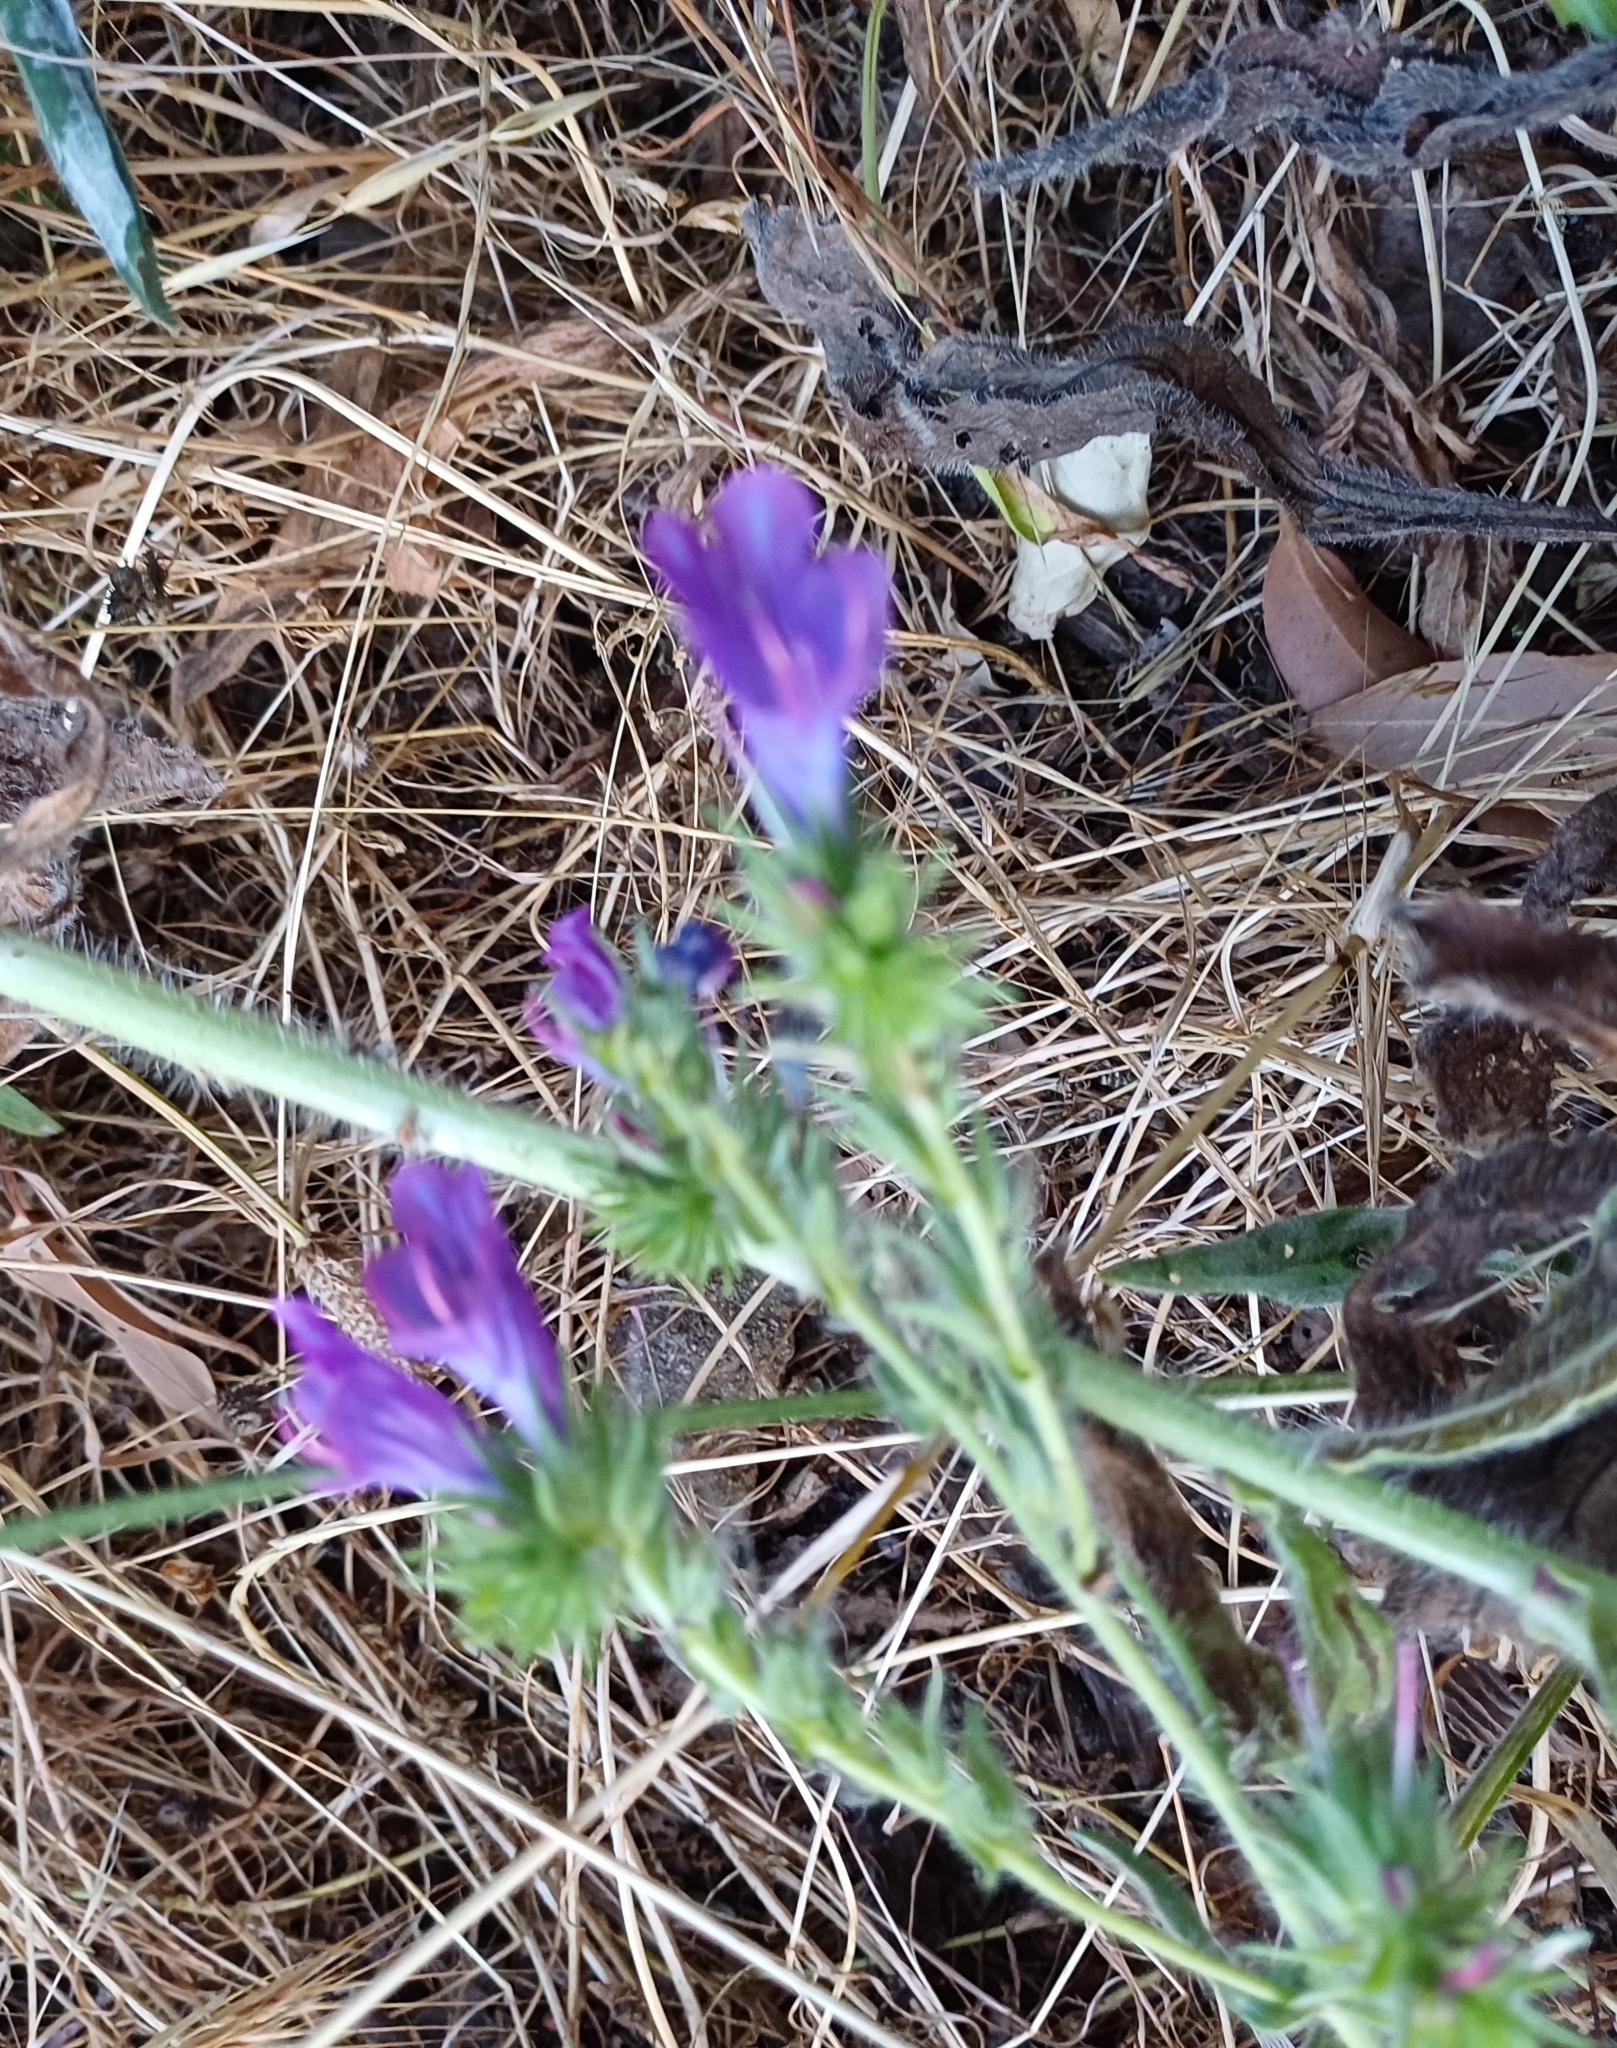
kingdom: Plantae
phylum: Tracheophyta
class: Magnoliopsida
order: Boraginales
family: Boraginaceae
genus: Echium
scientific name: Echium plantagineum
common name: Purple viper's-bugloss
